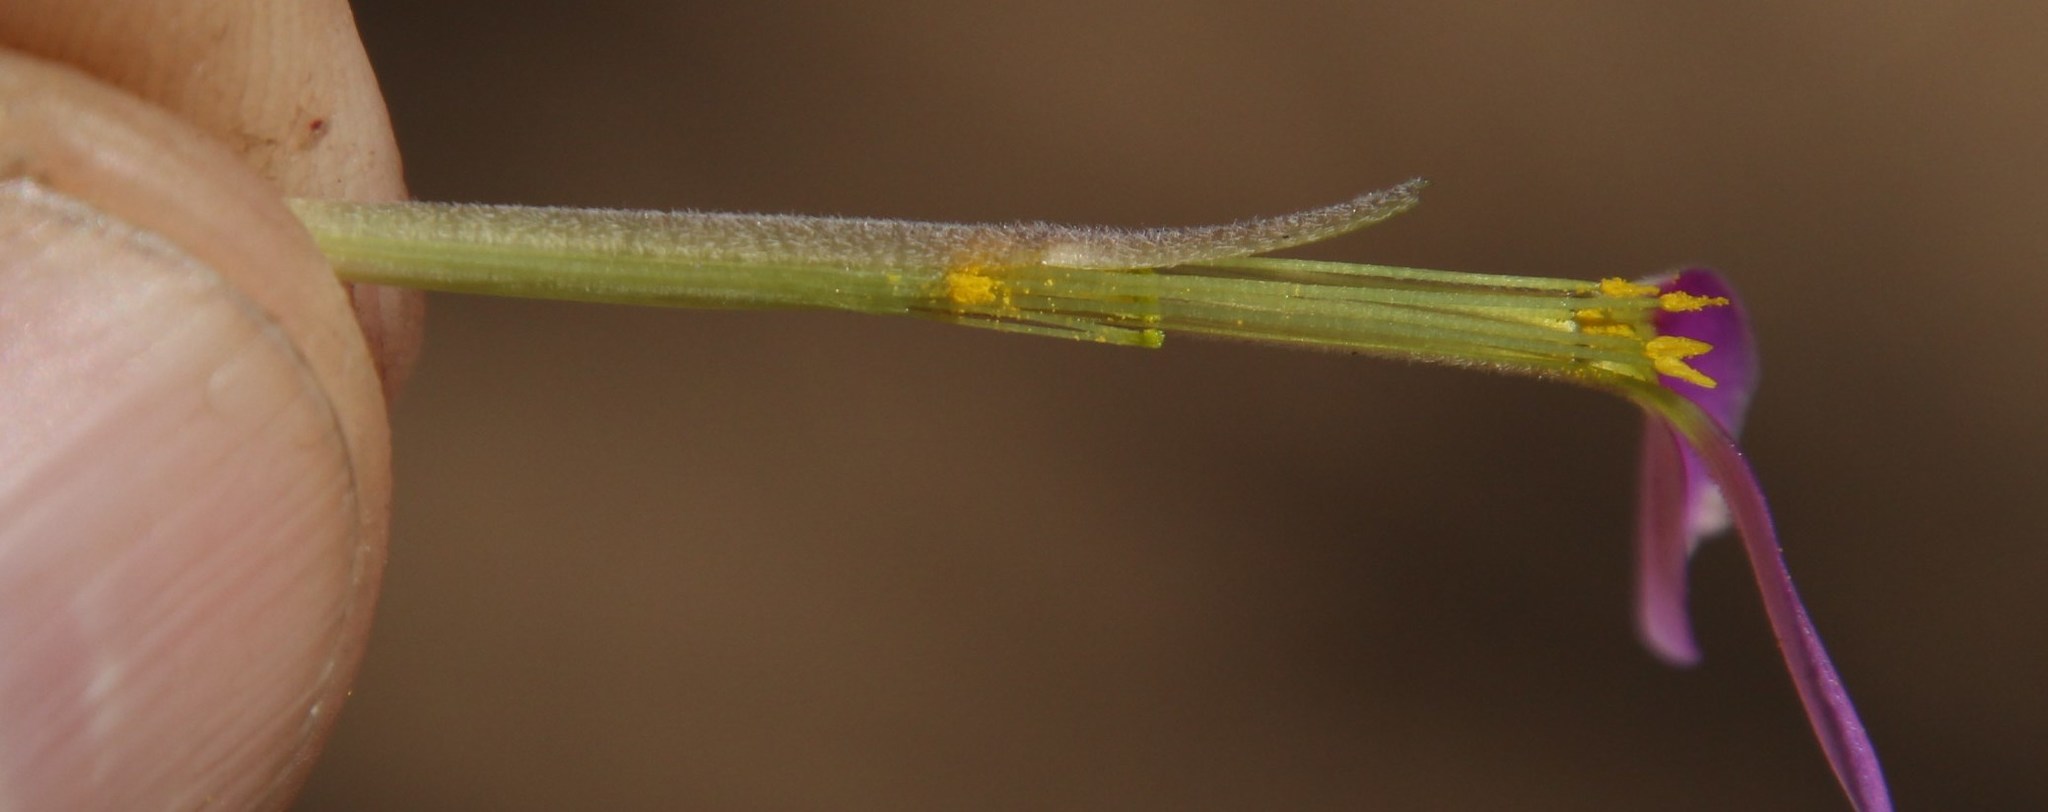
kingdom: Plantae
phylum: Tracheophyta
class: Magnoliopsida
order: Oxalidales
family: Oxalidaceae
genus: Oxalis
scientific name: Oxalis hirta
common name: Tropical woodsorrel
